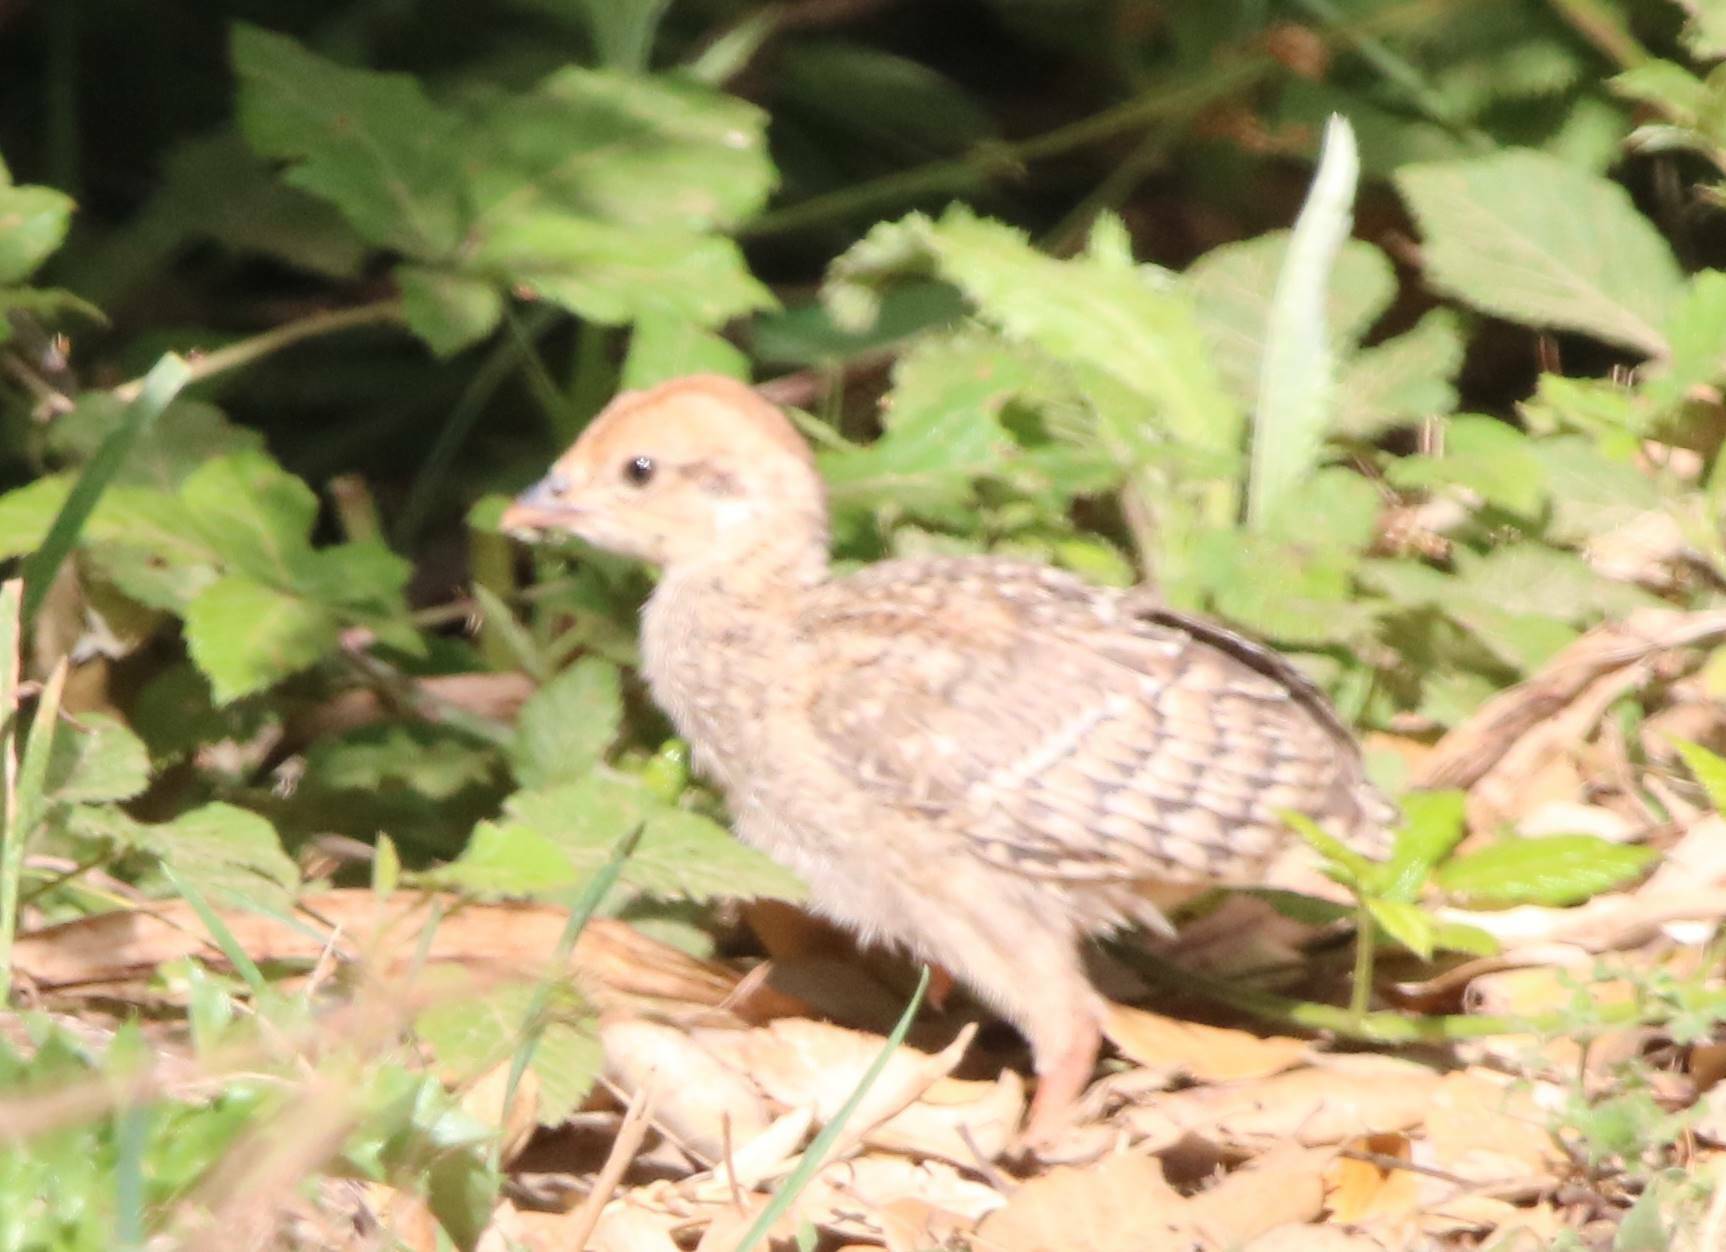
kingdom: Animalia
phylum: Chordata
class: Aves
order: Galliformes
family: Phasianidae
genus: Alectoris
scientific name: Alectoris barbara
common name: Barbary partridge
